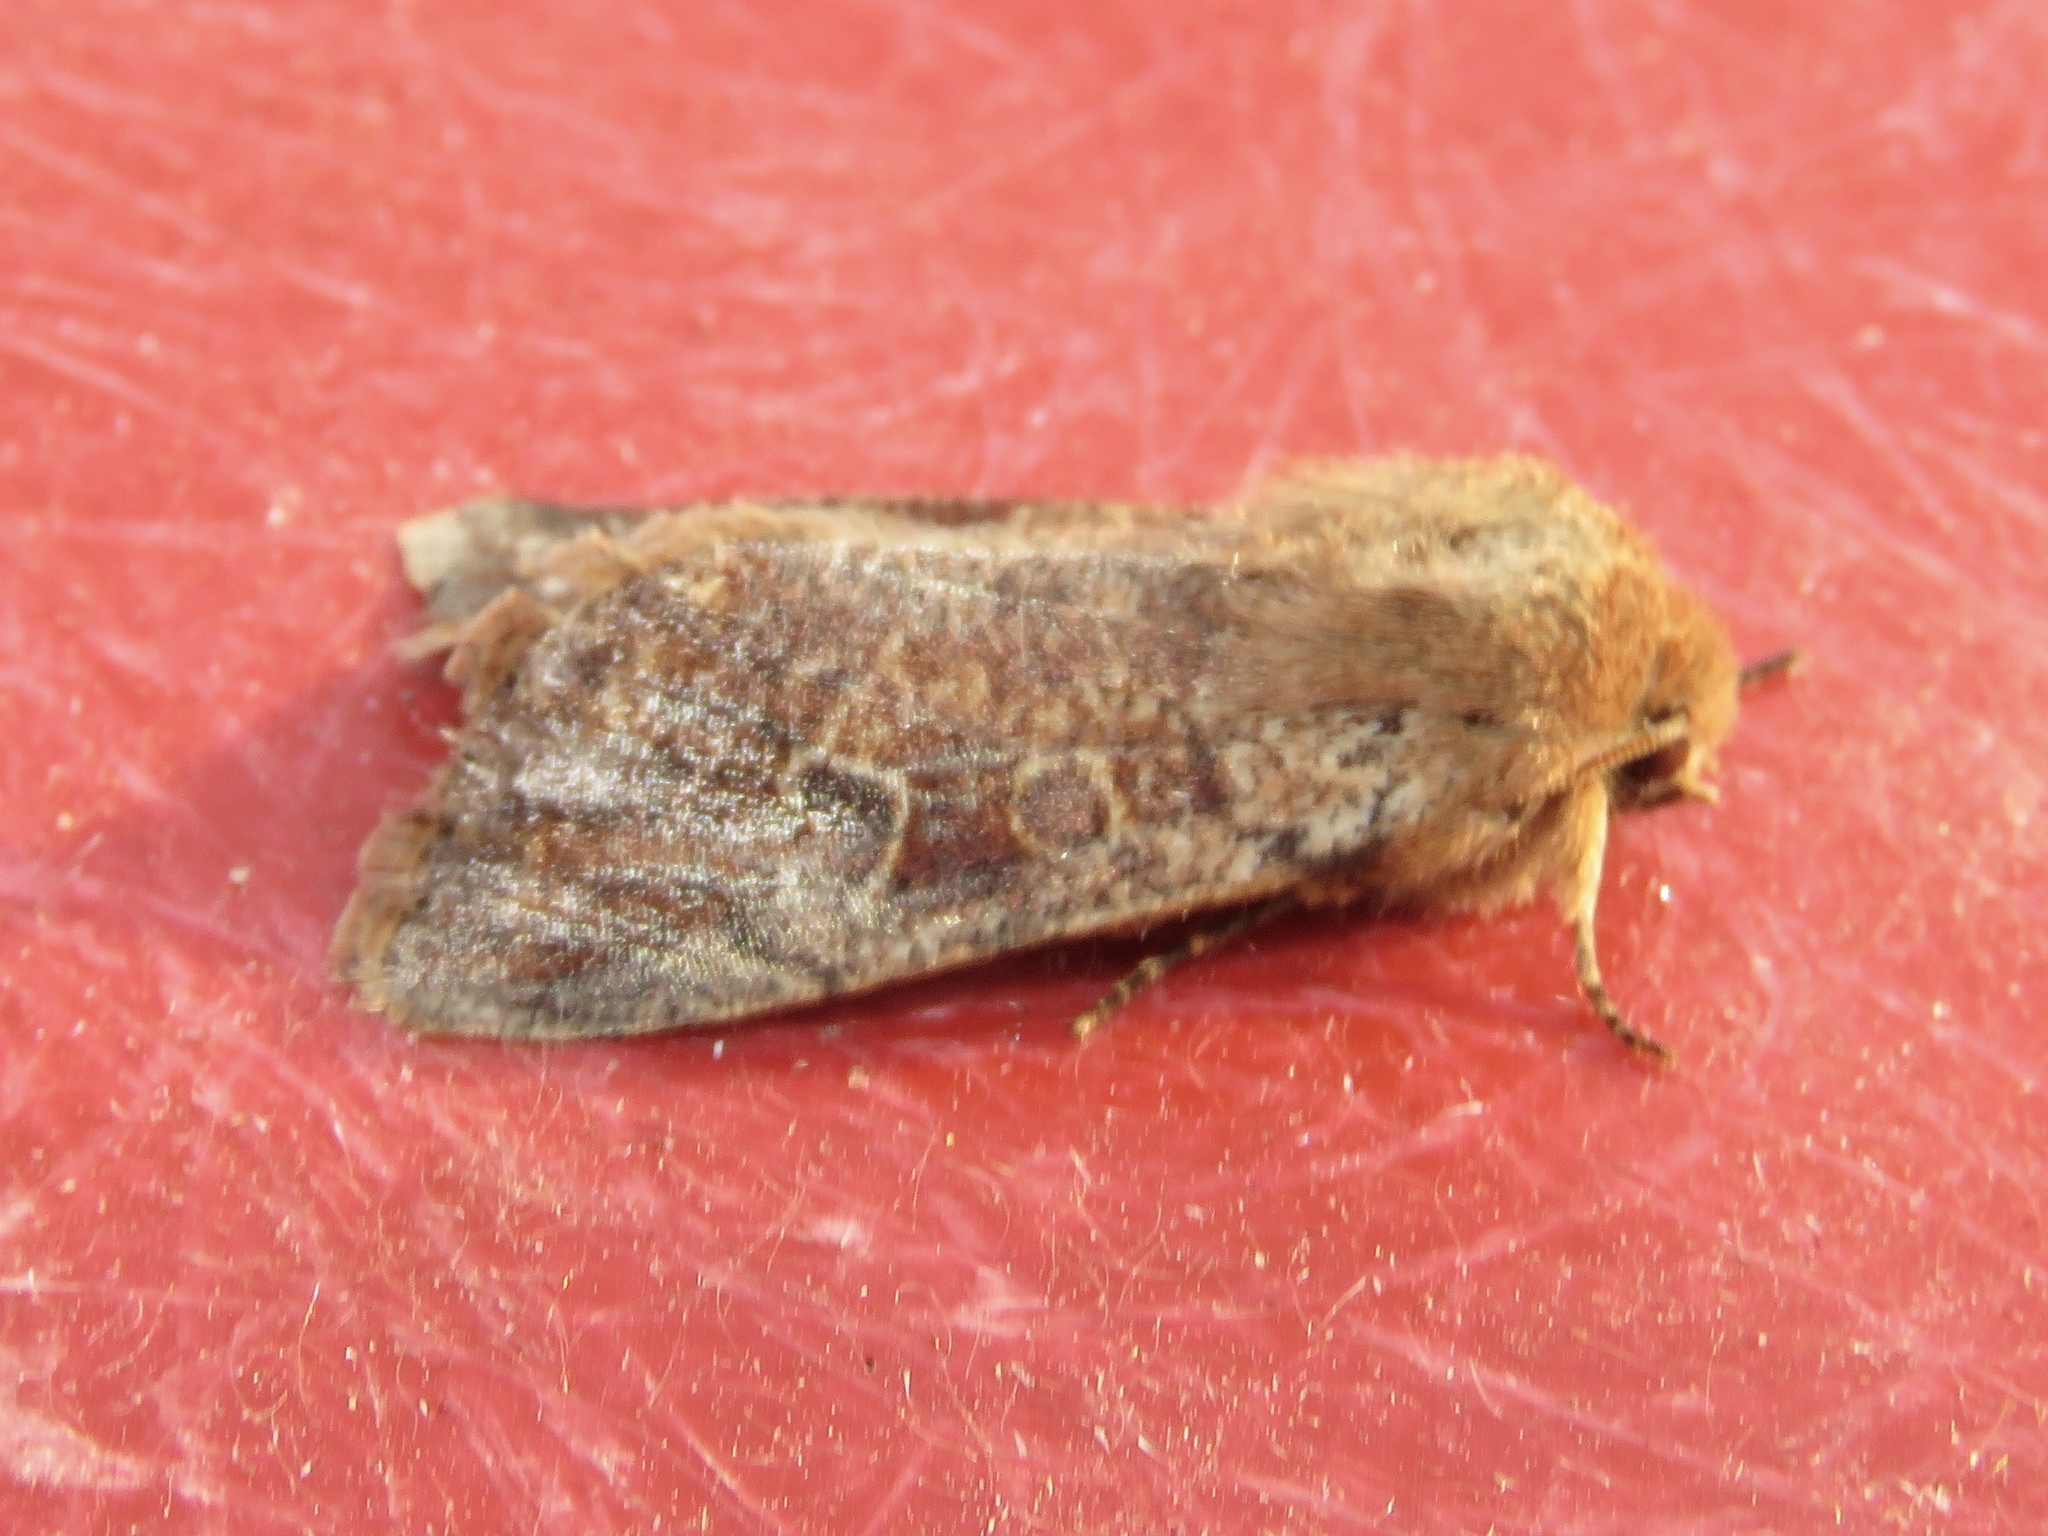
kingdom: Animalia
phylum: Arthropoda
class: Insecta
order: Lepidoptera
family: Noctuidae
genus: Orthosia
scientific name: Orthosia rubescens
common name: Ruby quaker
